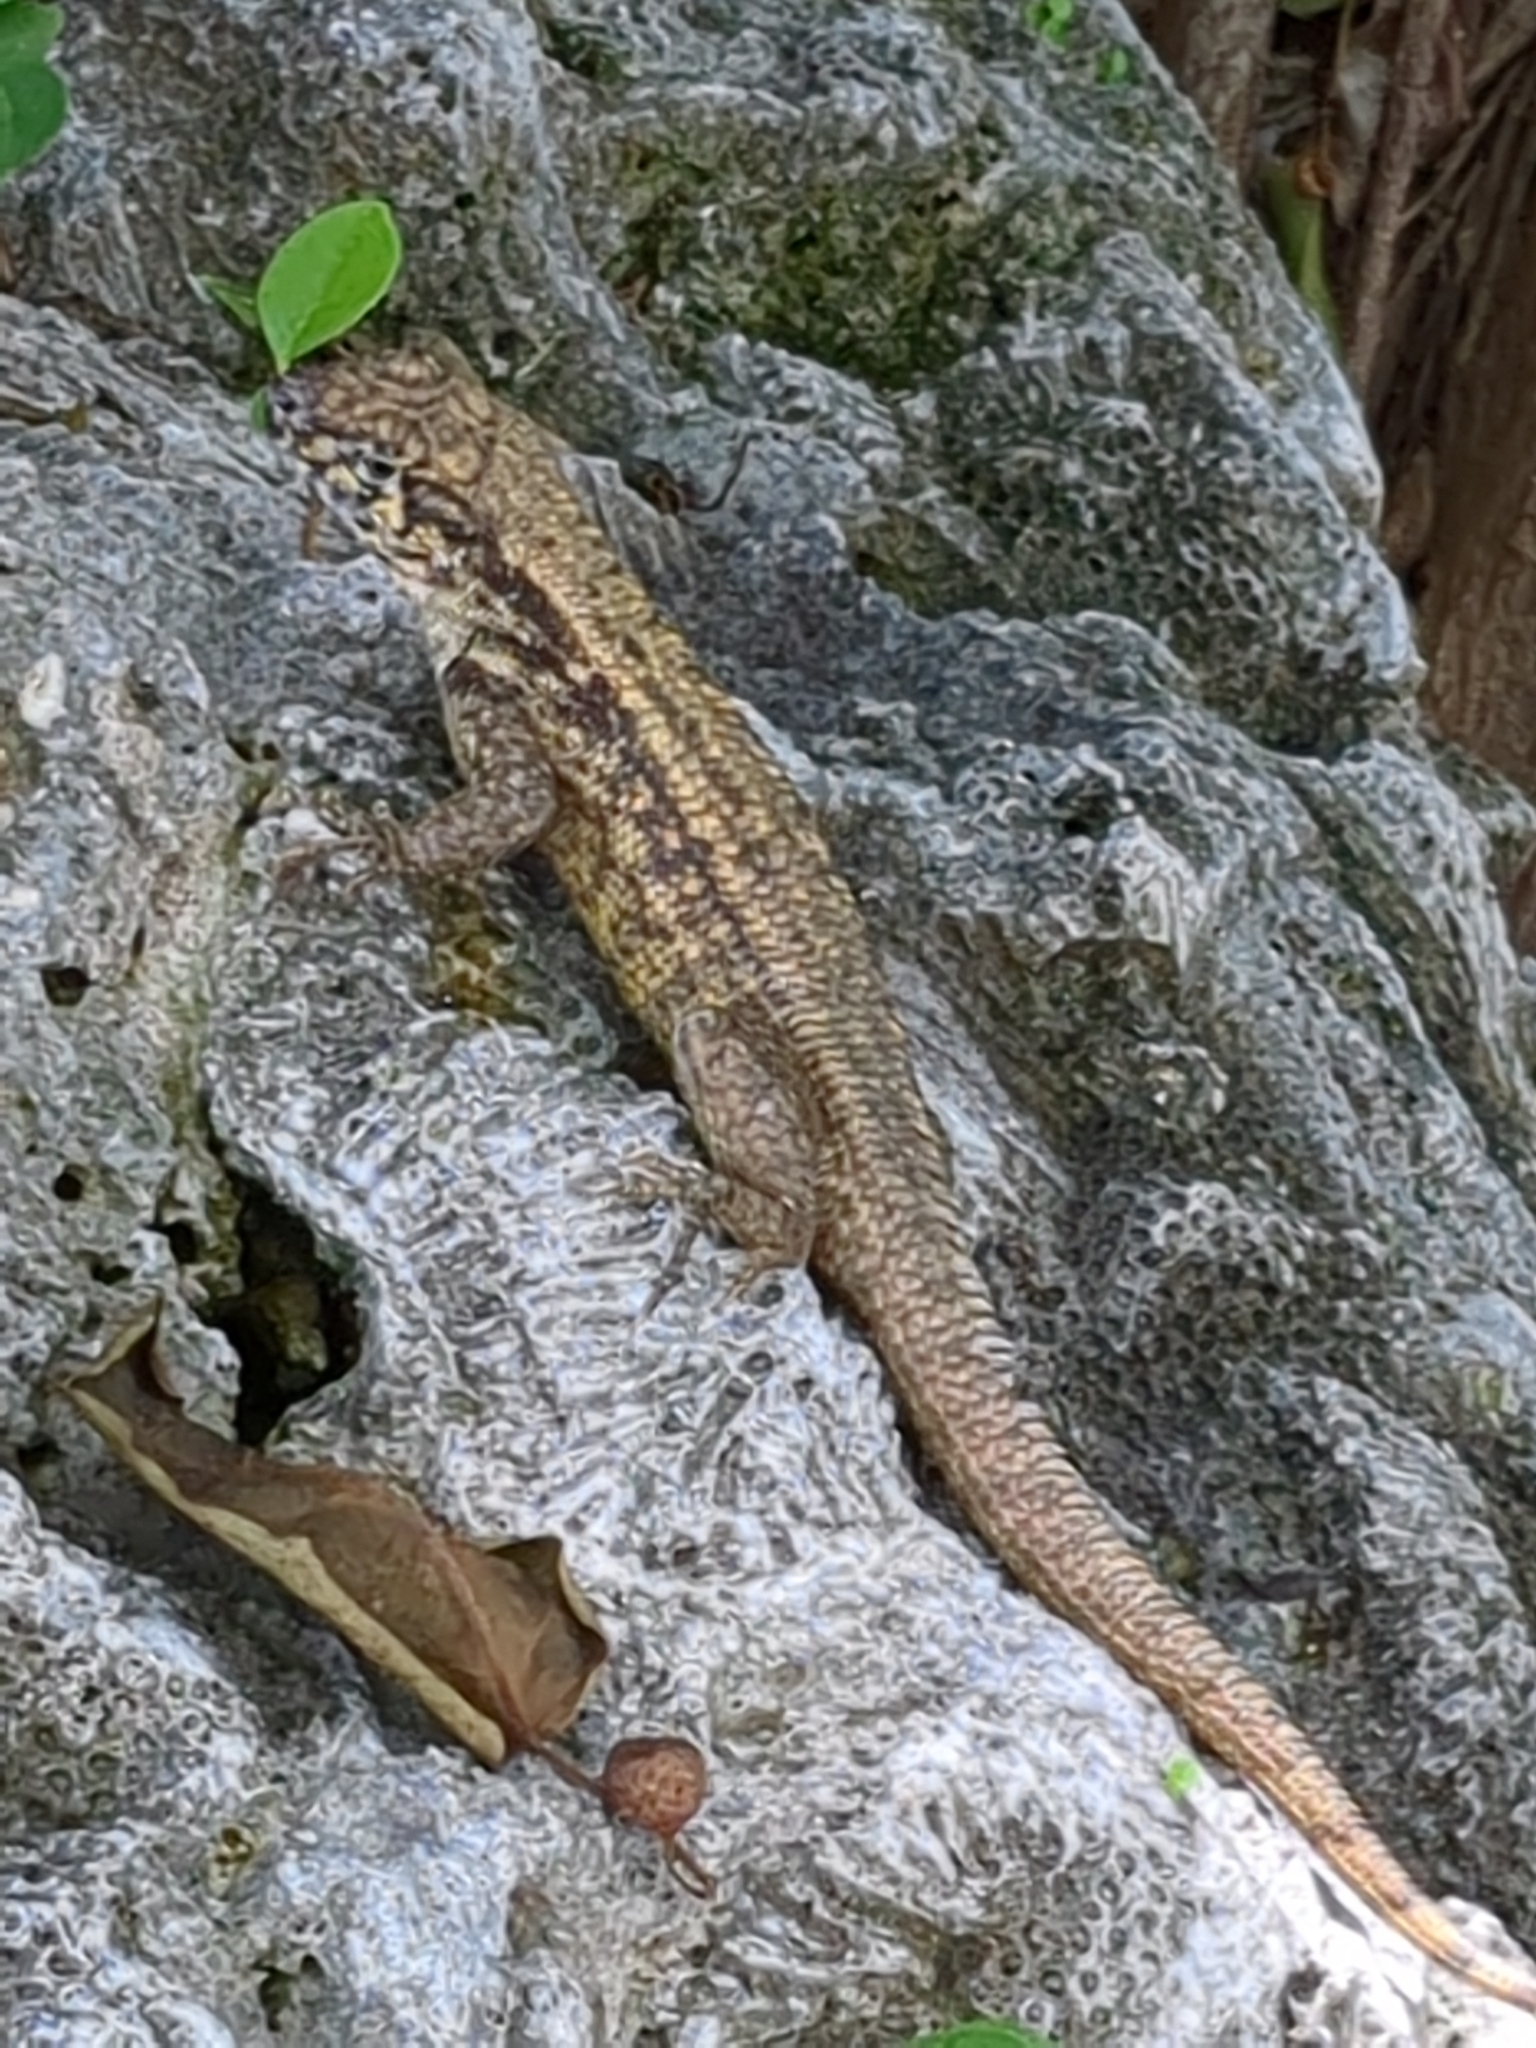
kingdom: Animalia
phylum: Chordata
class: Squamata
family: Leiocephalidae
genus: Leiocephalus
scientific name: Leiocephalus carinatus
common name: Northern curly-tailed lizard
